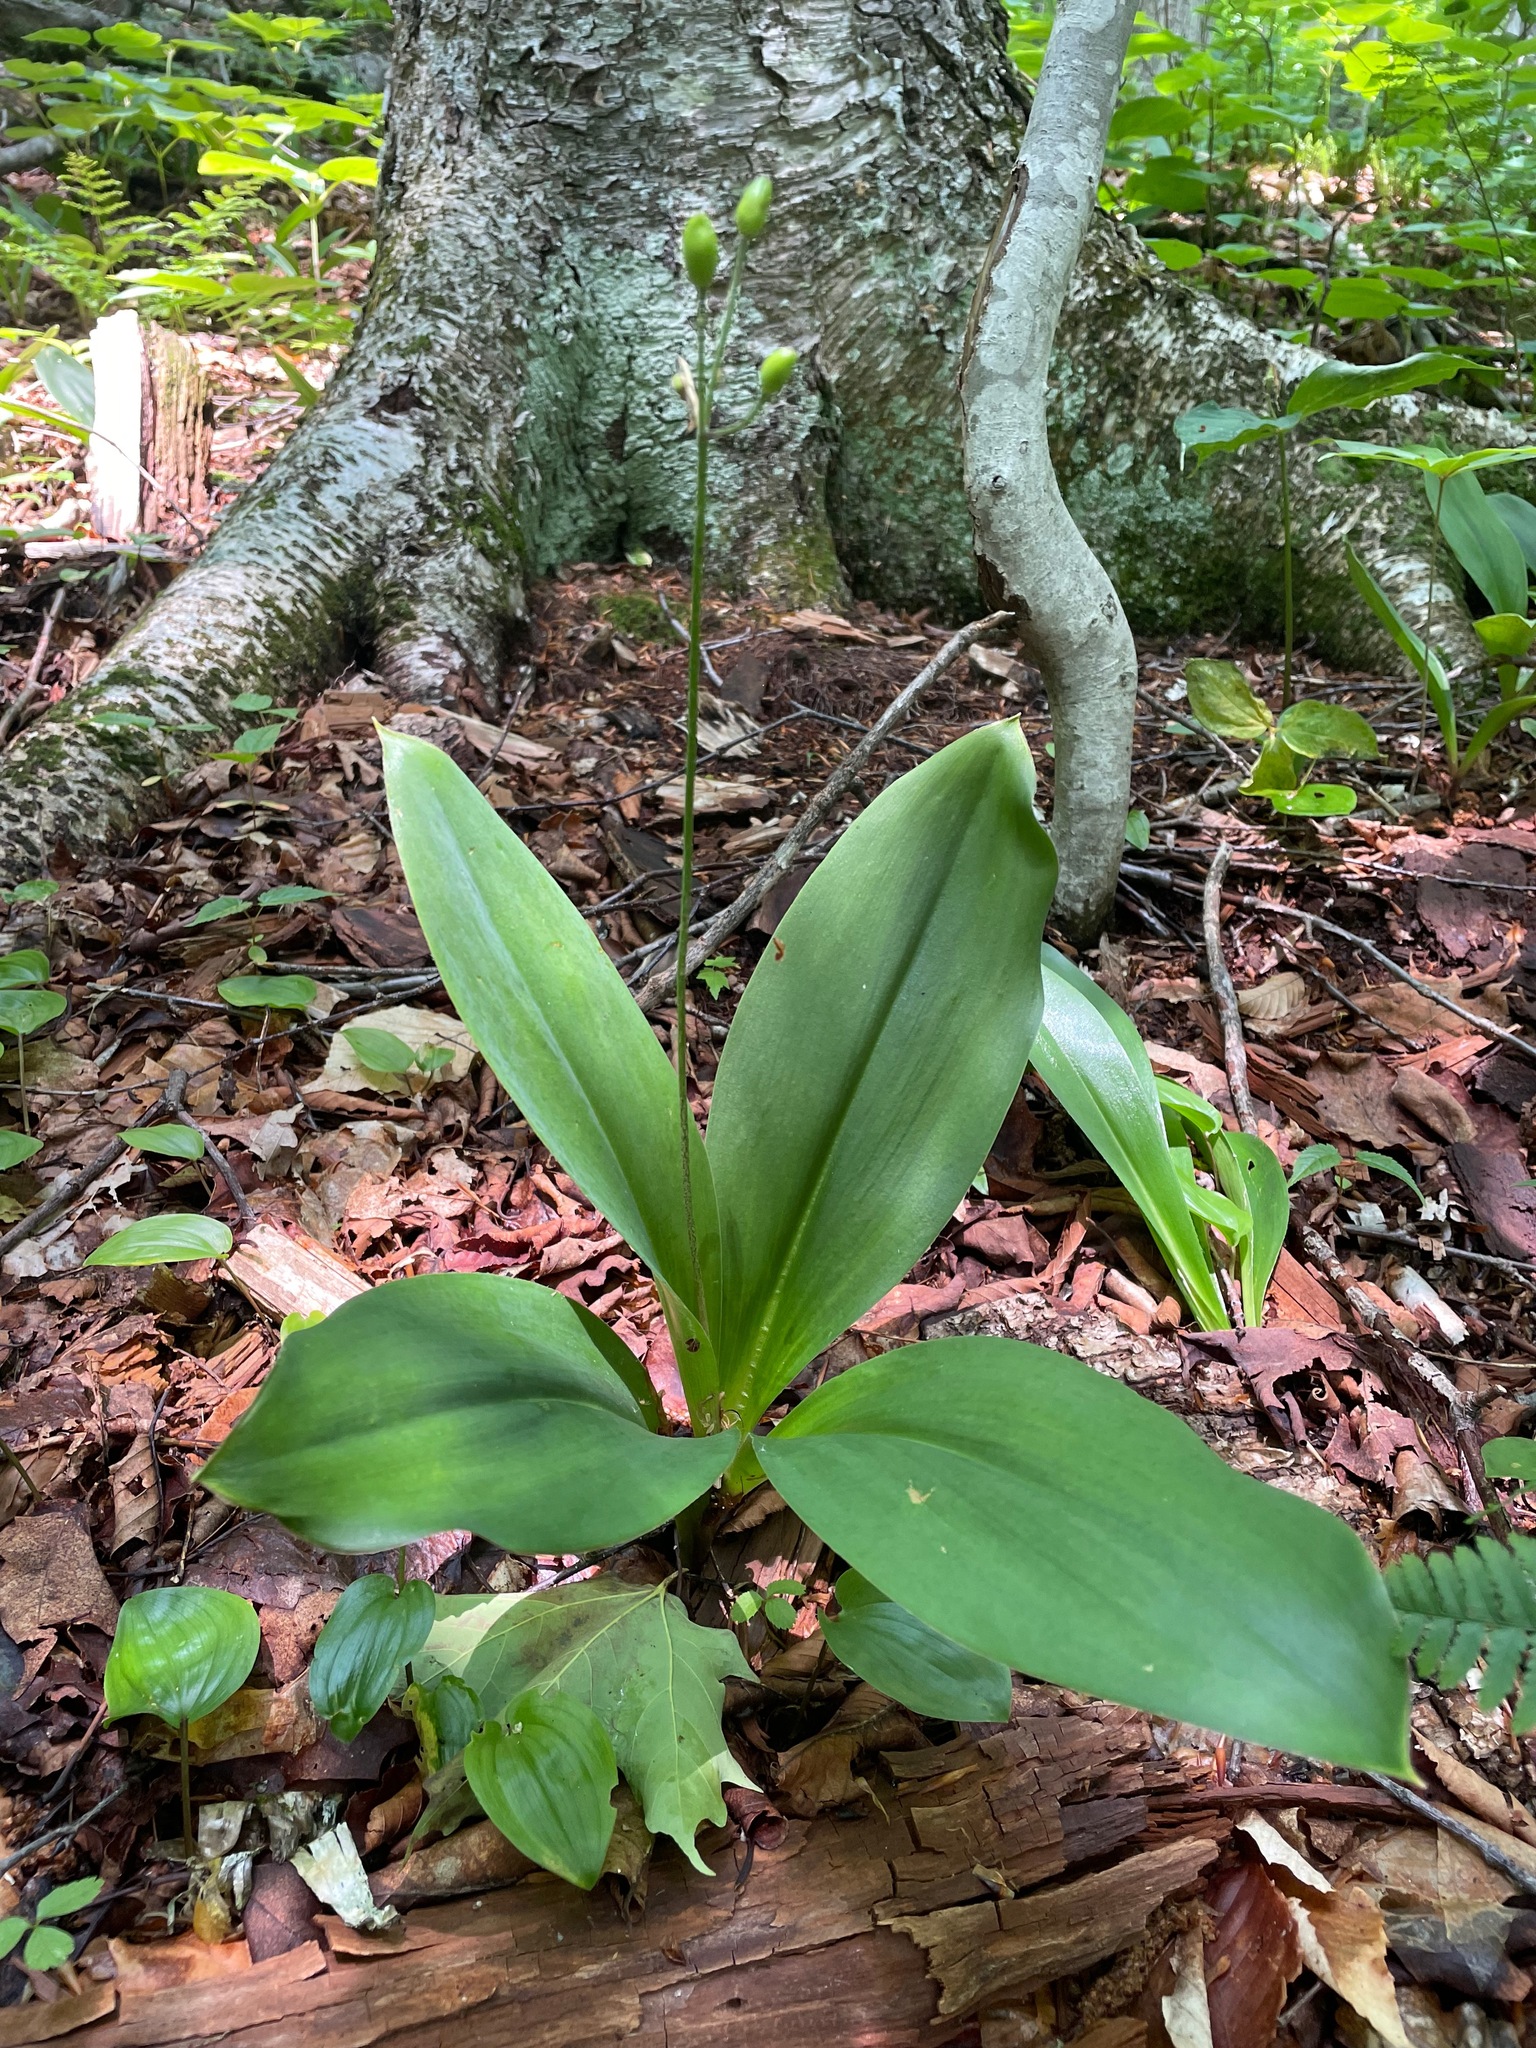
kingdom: Plantae
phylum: Tracheophyta
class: Liliopsida
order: Liliales
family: Liliaceae
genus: Clintonia
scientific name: Clintonia borealis
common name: Yellow clintonia
